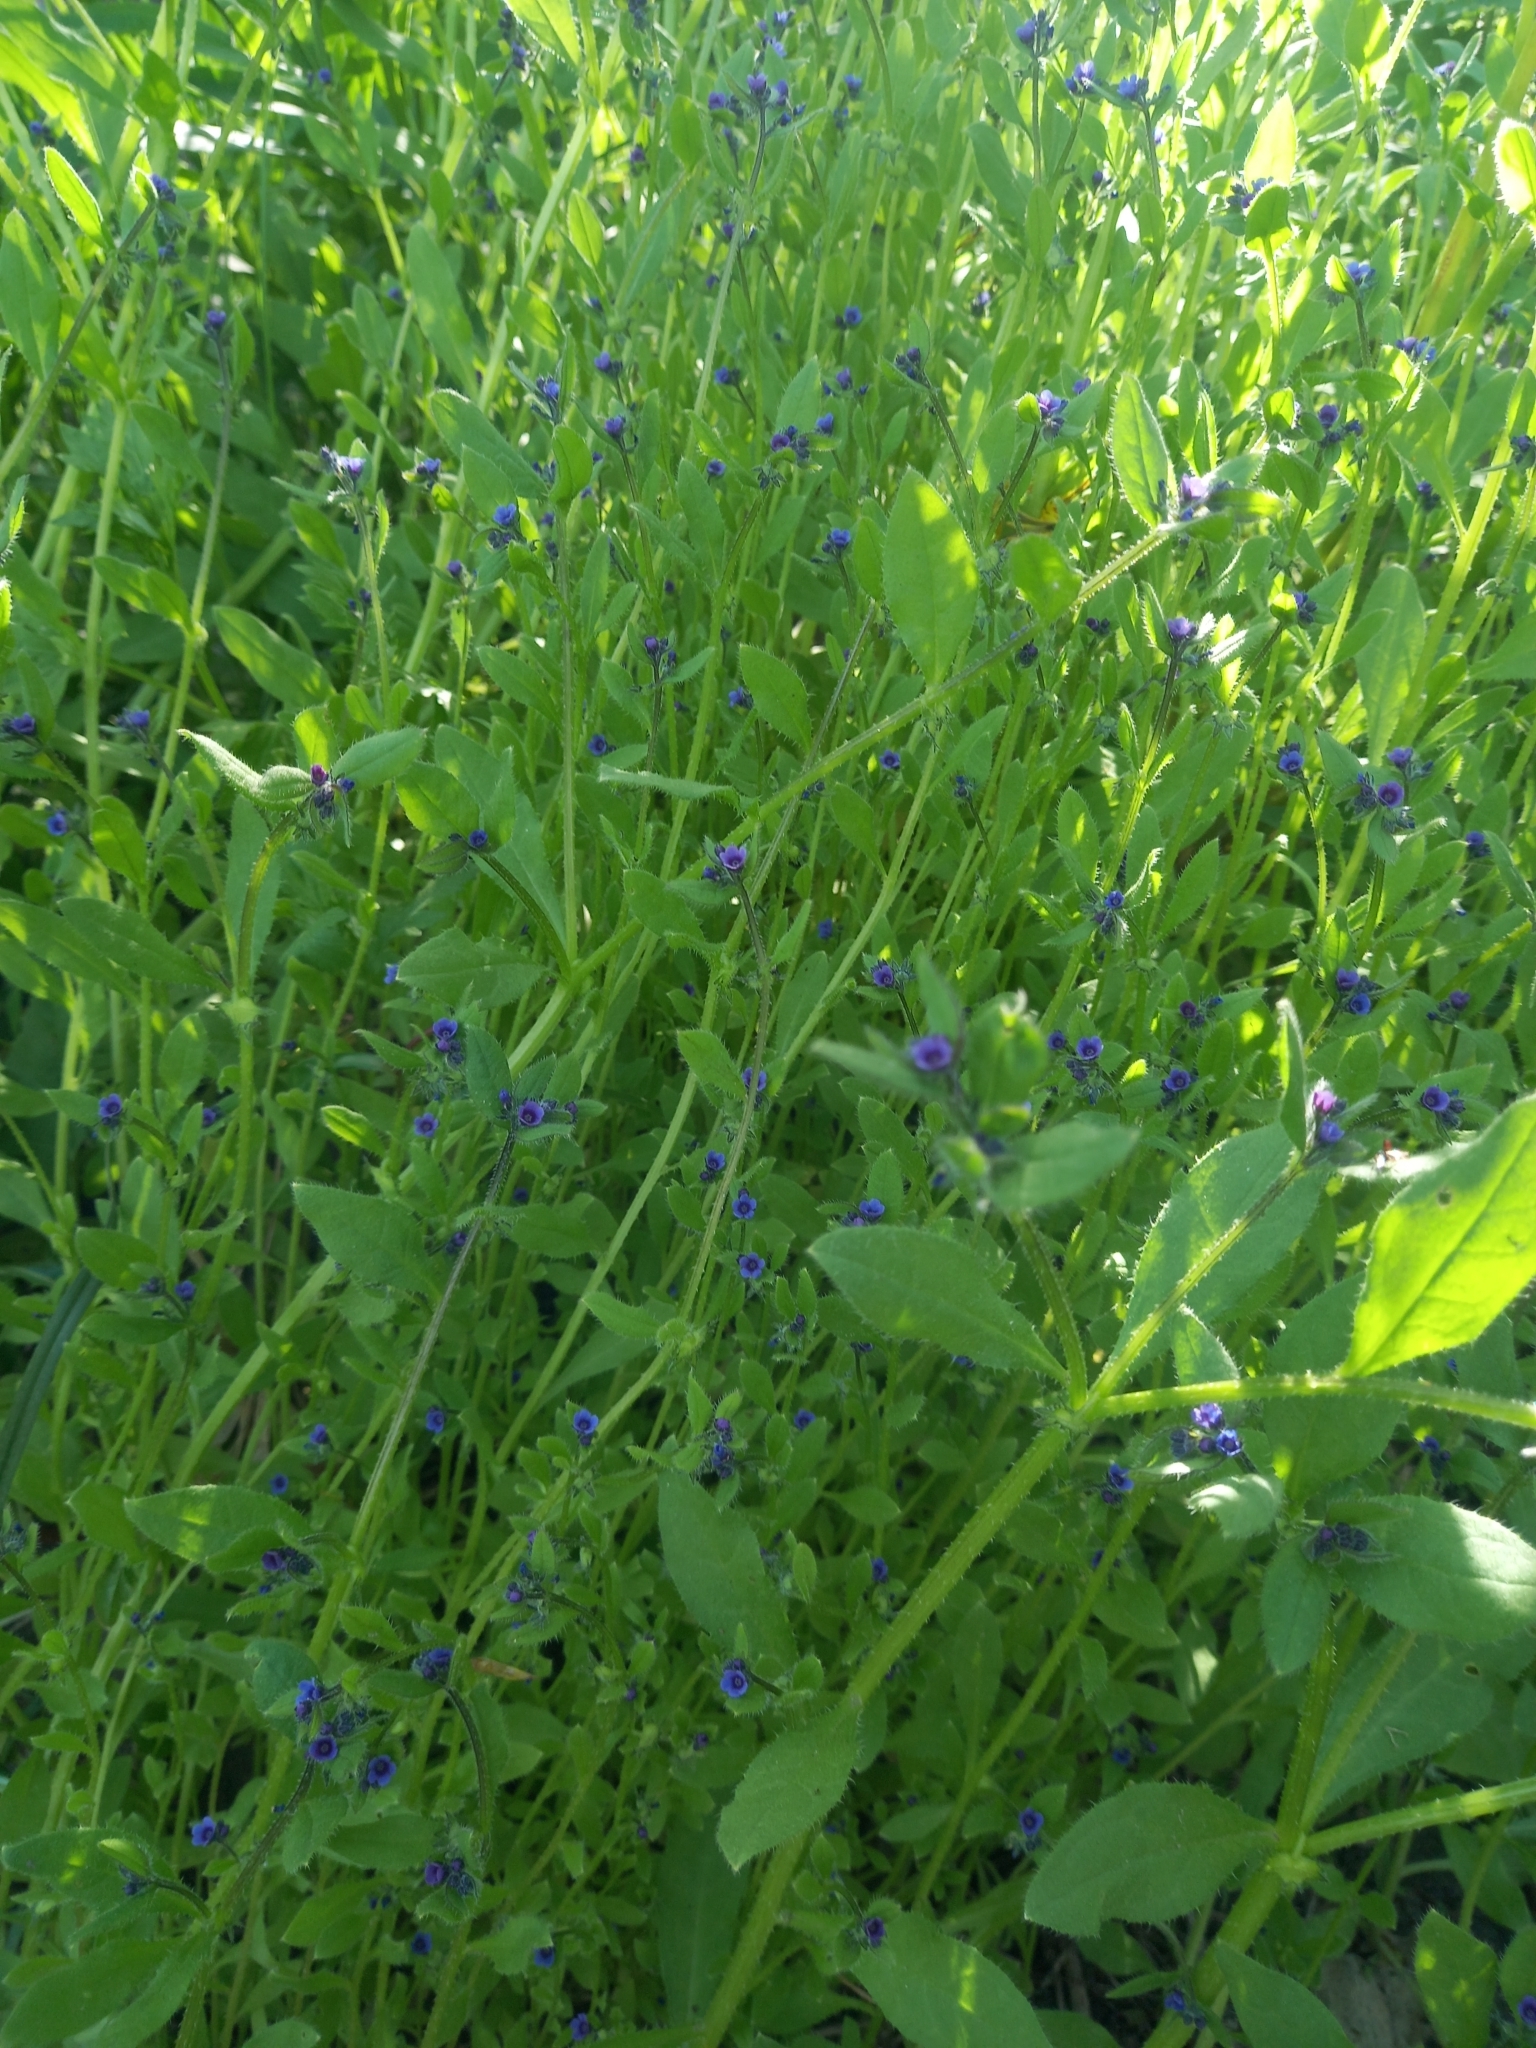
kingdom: Plantae
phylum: Tracheophyta
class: Magnoliopsida
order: Boraginales
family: Boraginaceae
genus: Asperugo
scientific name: Asperugo procumbens
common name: Madwort
